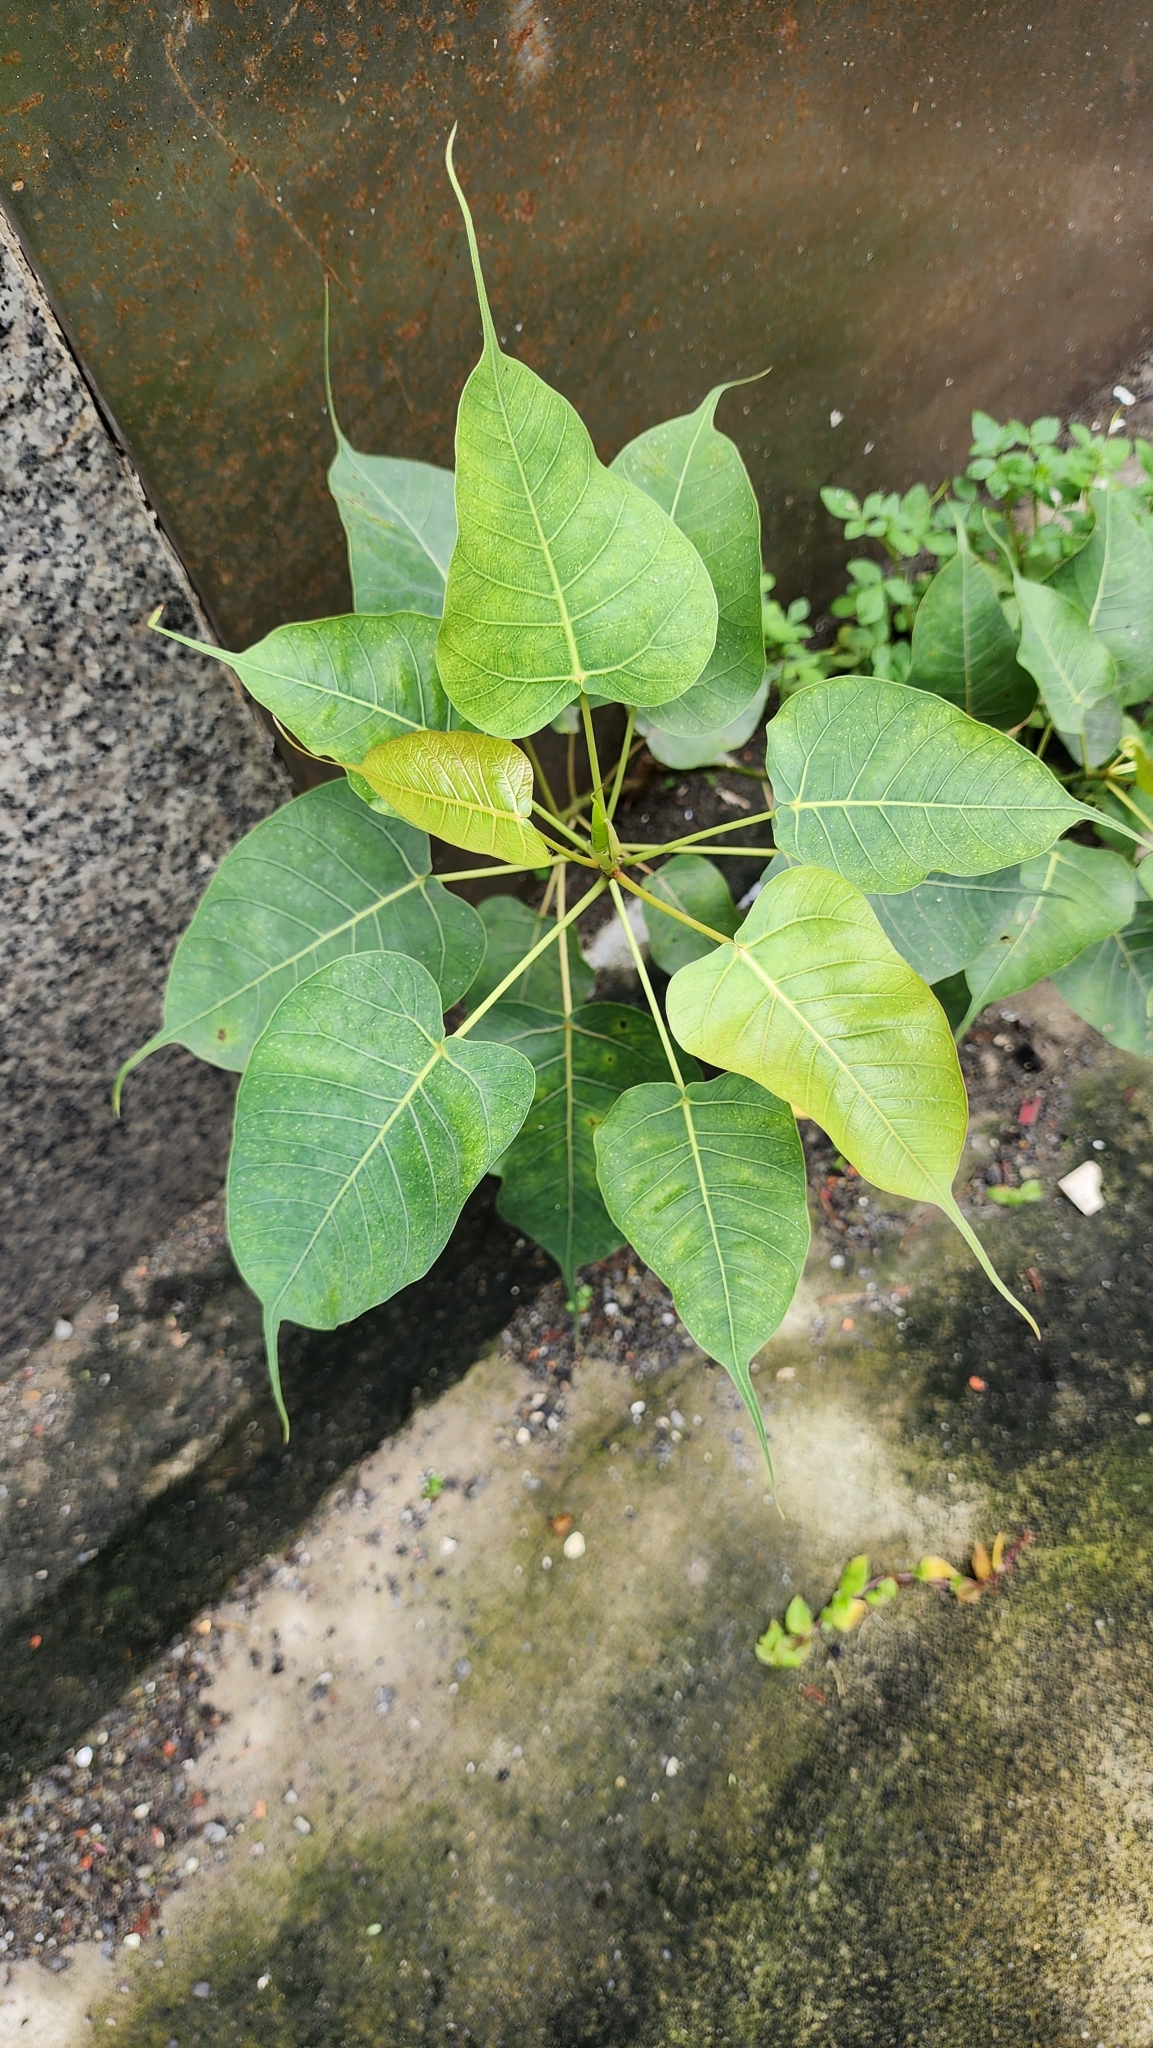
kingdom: Plantae
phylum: Tracheophyta
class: Magnoliopsida
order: Rosales
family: Moraceae
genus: Ficus
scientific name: Ficus religiosa
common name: Bodhi tree
